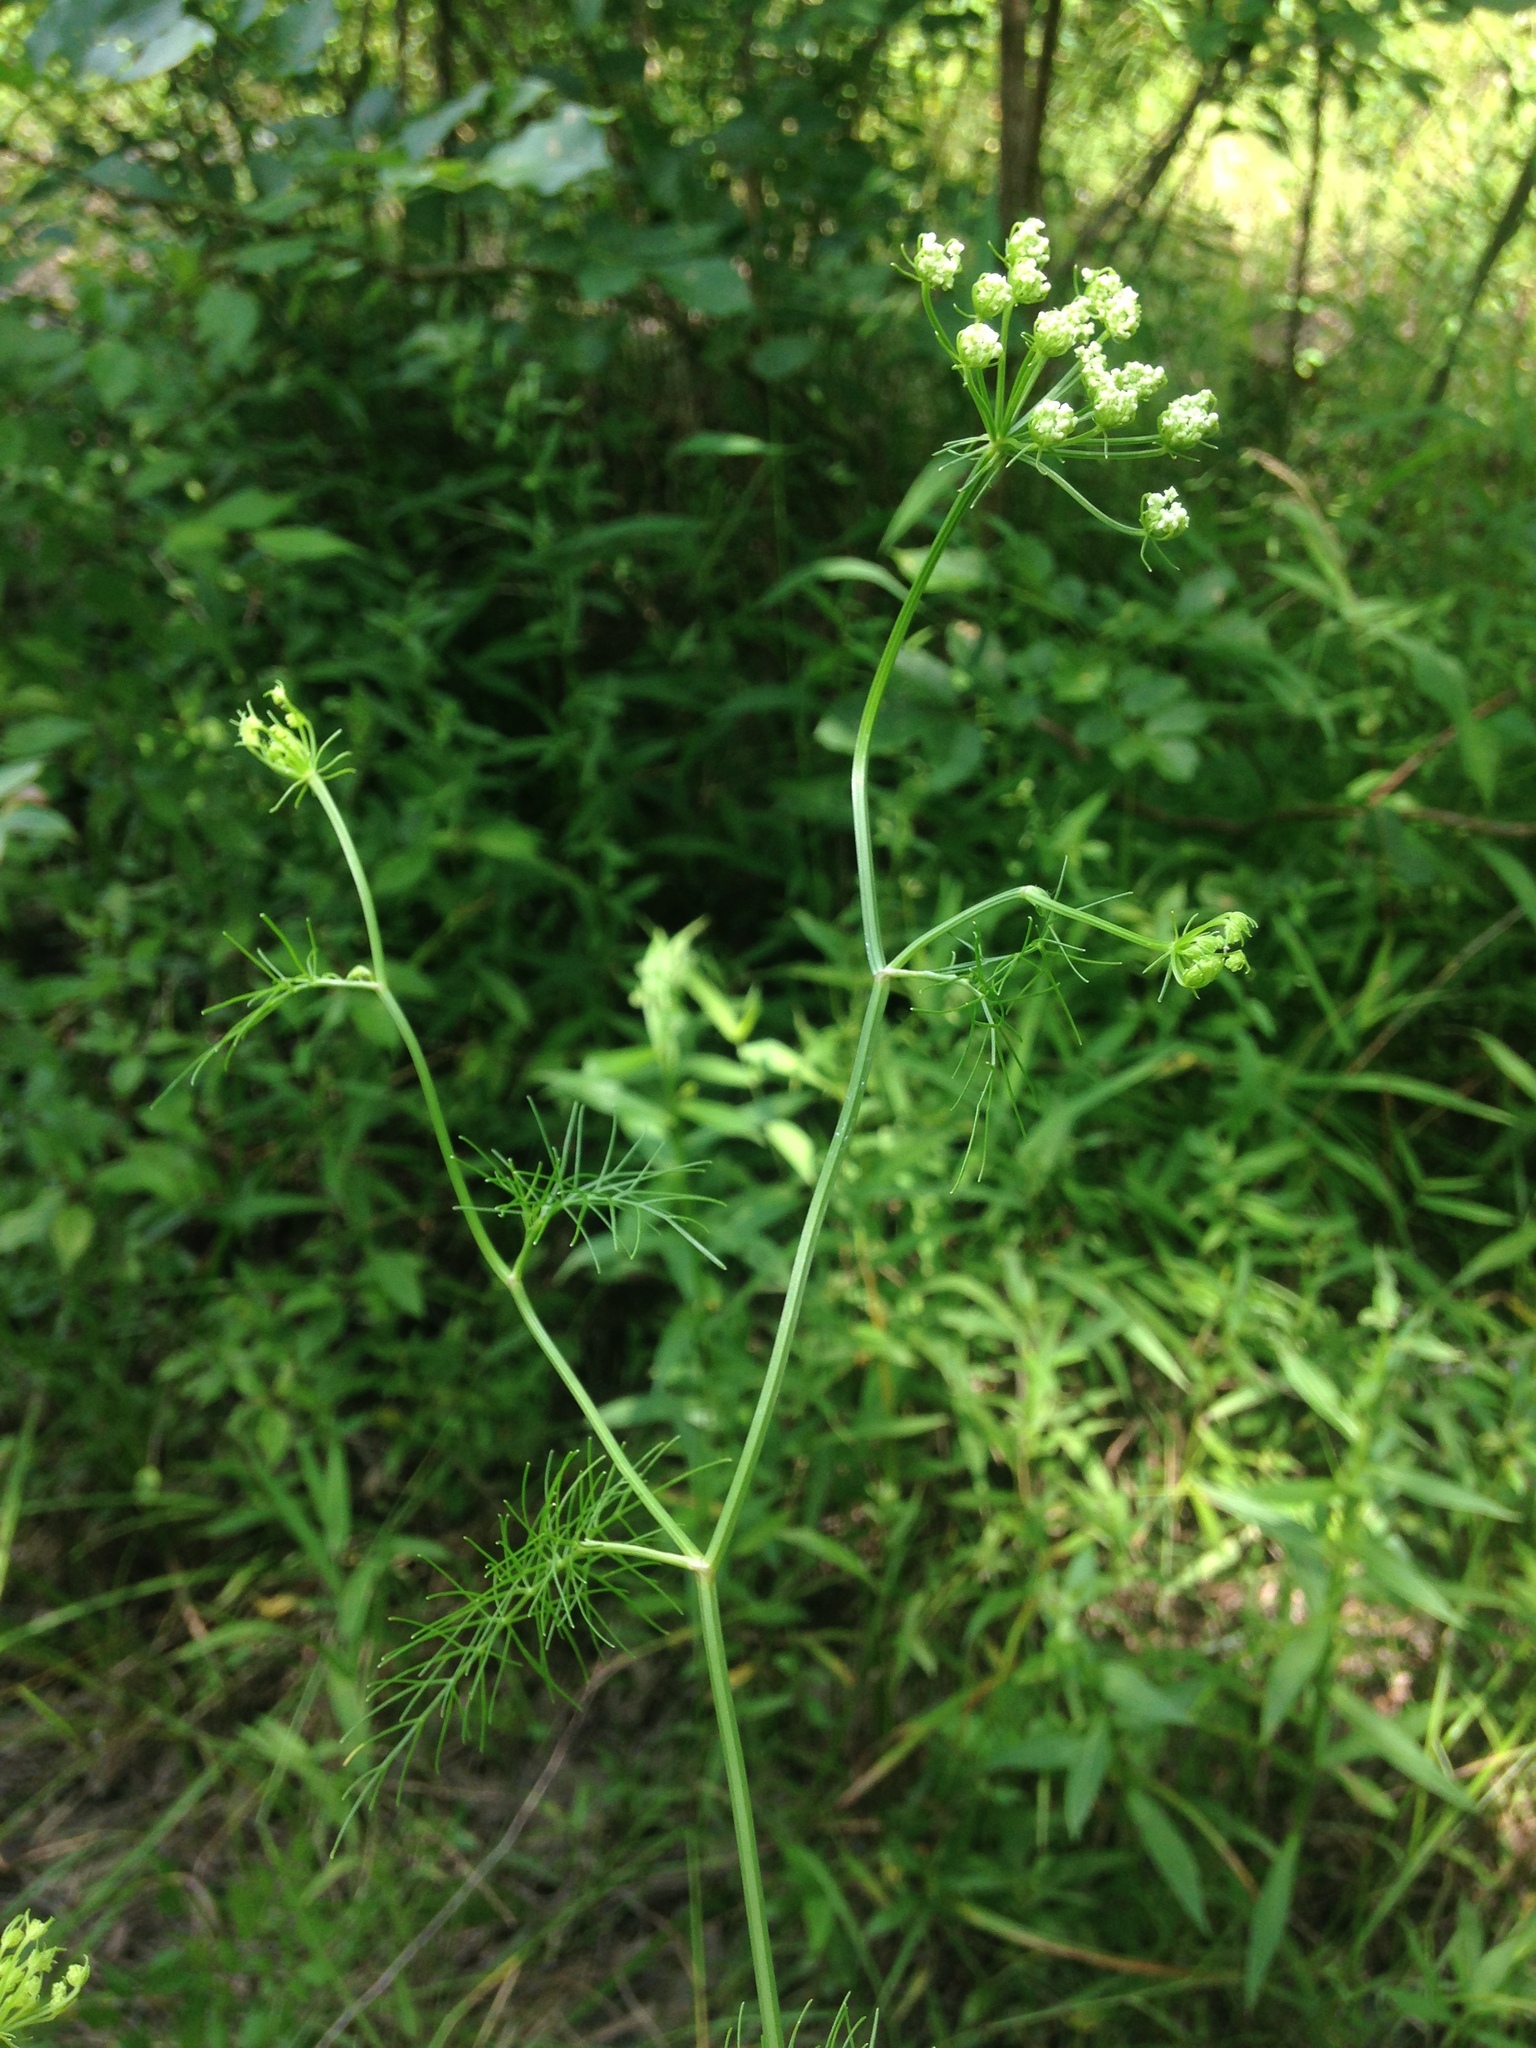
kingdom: Plantae
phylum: Tracheophyta
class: Magnoliopsida
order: Apiales
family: Apiaceae
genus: Ptilimnium
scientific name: Ptilimnium costatum
